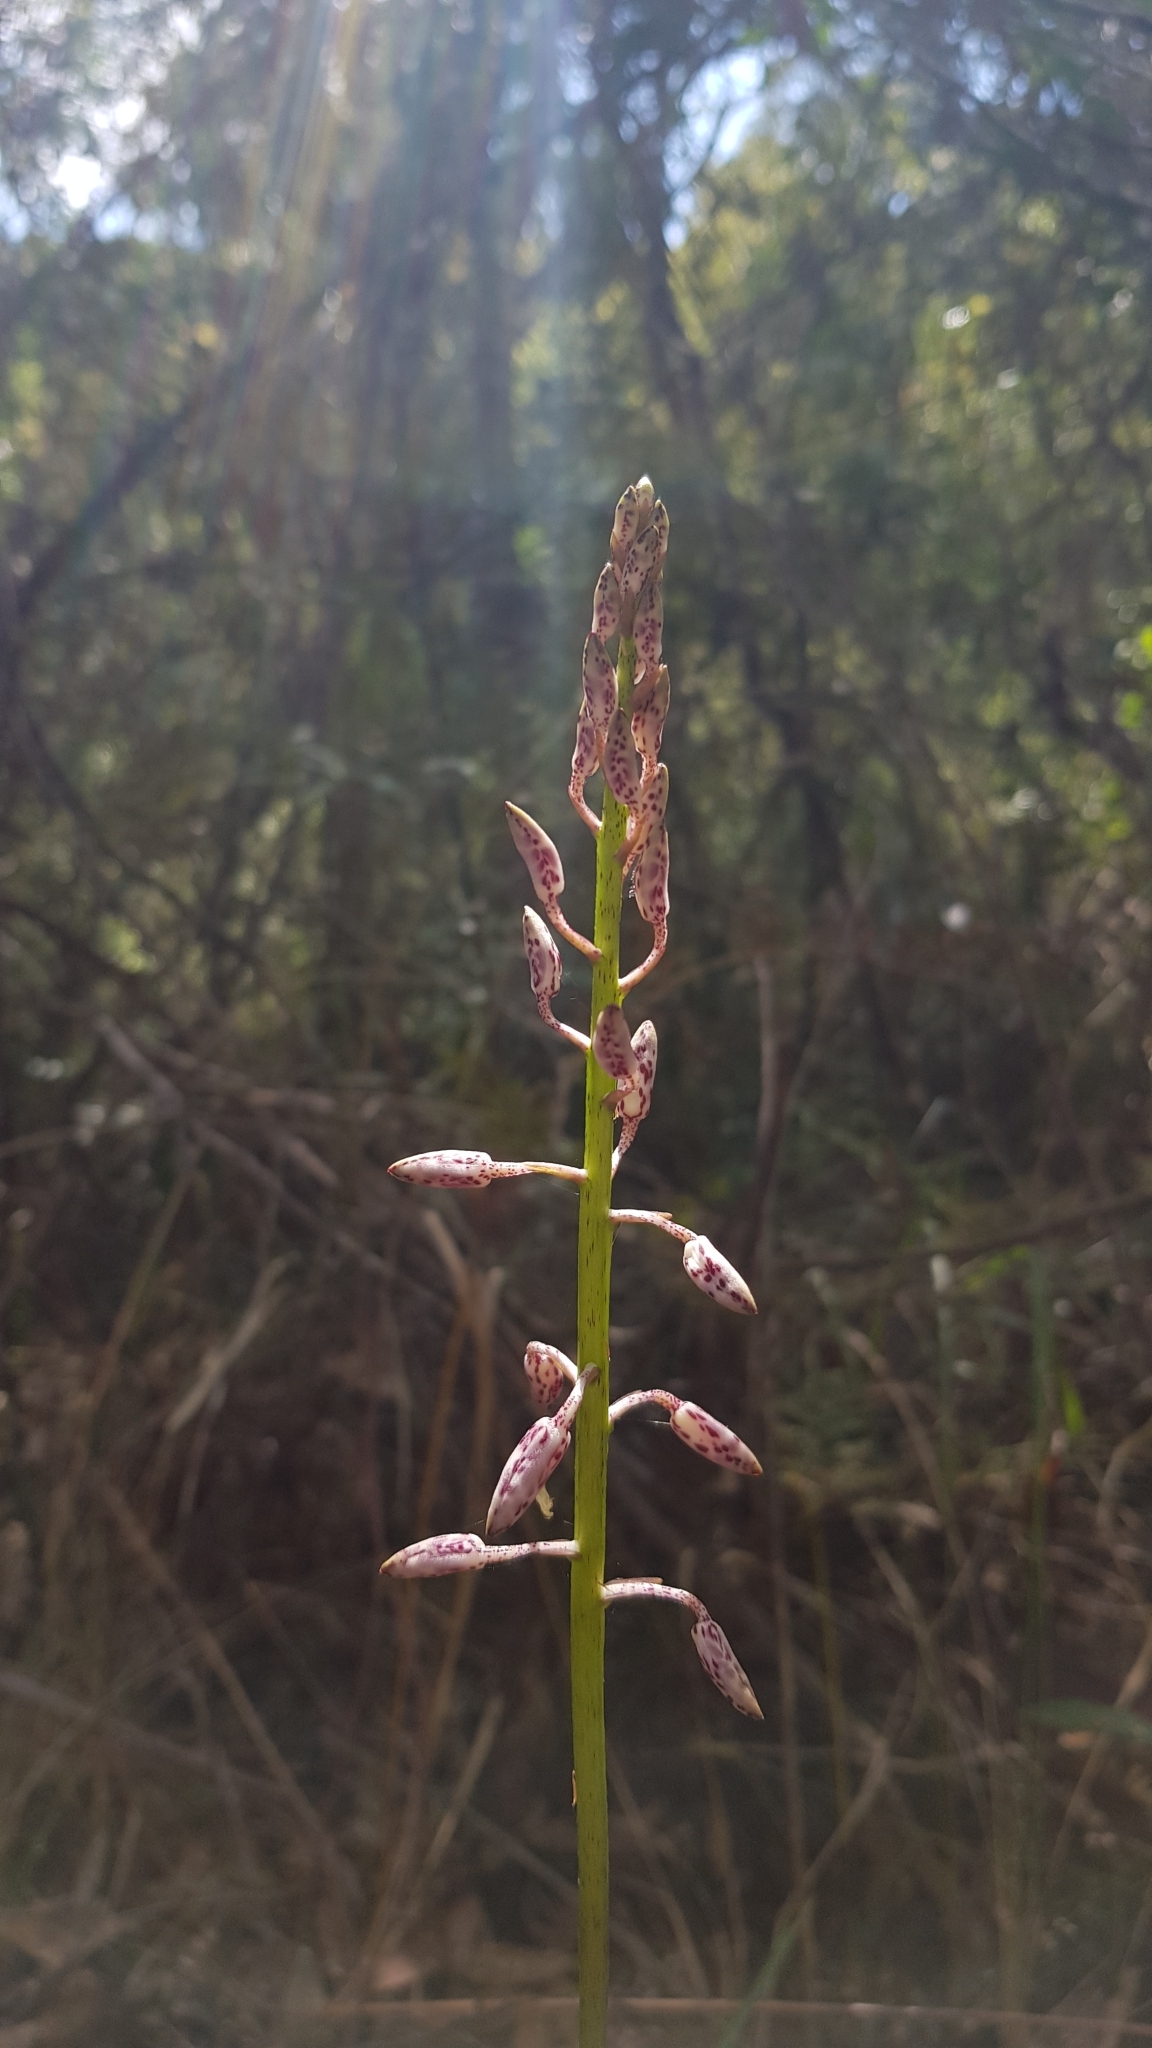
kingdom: Plantae
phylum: Tracheophyta
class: Liliopsida
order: Asparagales
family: Orchidaceae
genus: Dipodium
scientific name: Dipodium variegatum
